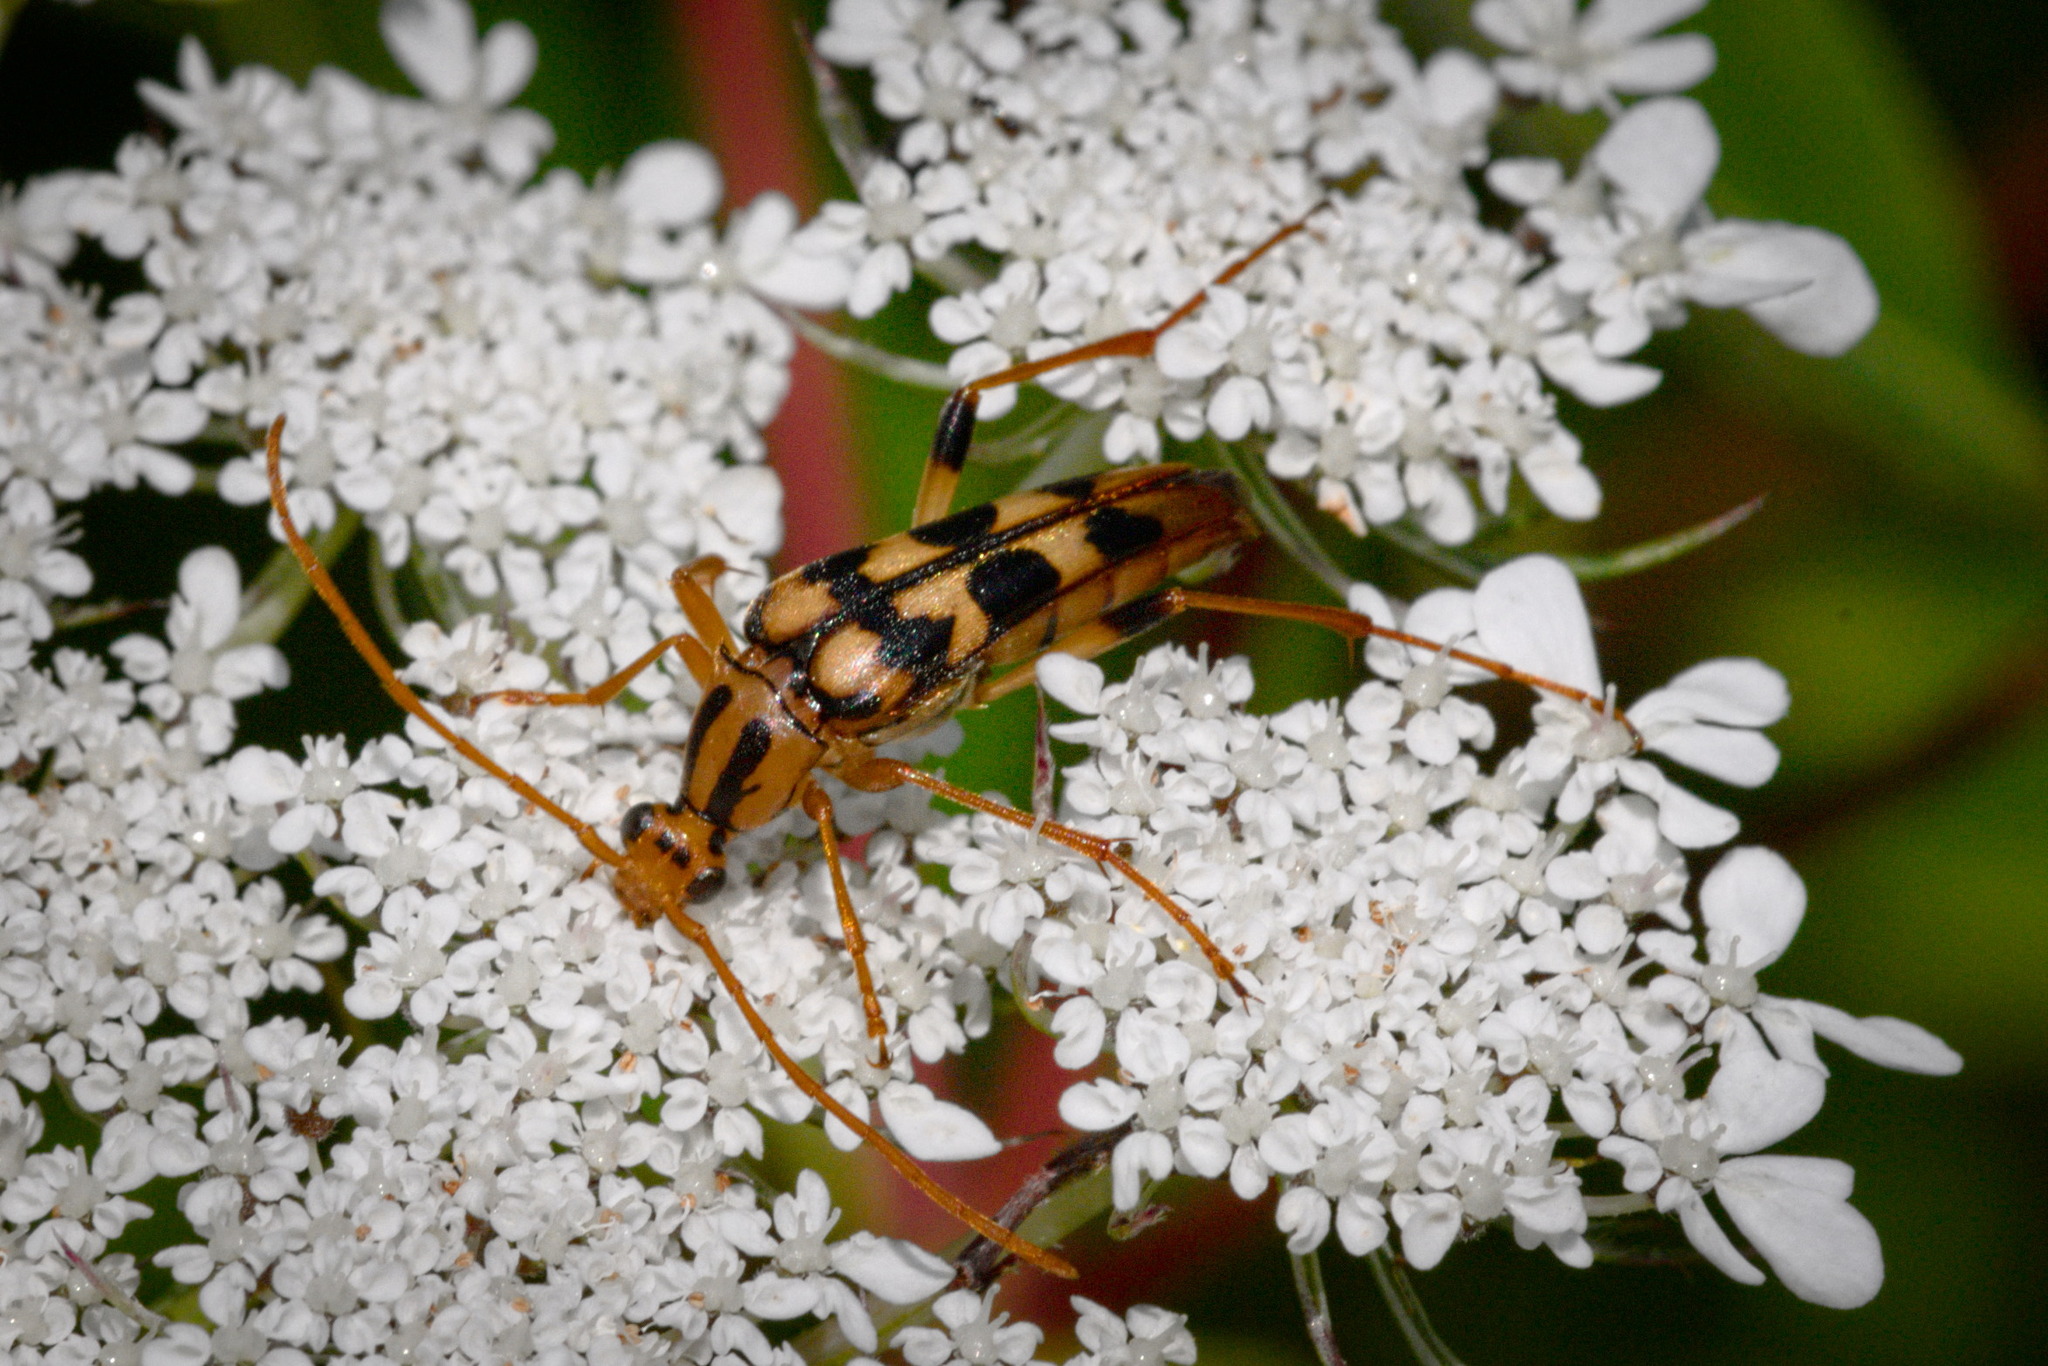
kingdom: Animalia
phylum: Arthropoda
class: Insecta
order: Coleoptera
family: Cerambycidae
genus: Strangalia
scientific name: Strangalia luteicornis
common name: Yellow-horned flower longhorn beetle
